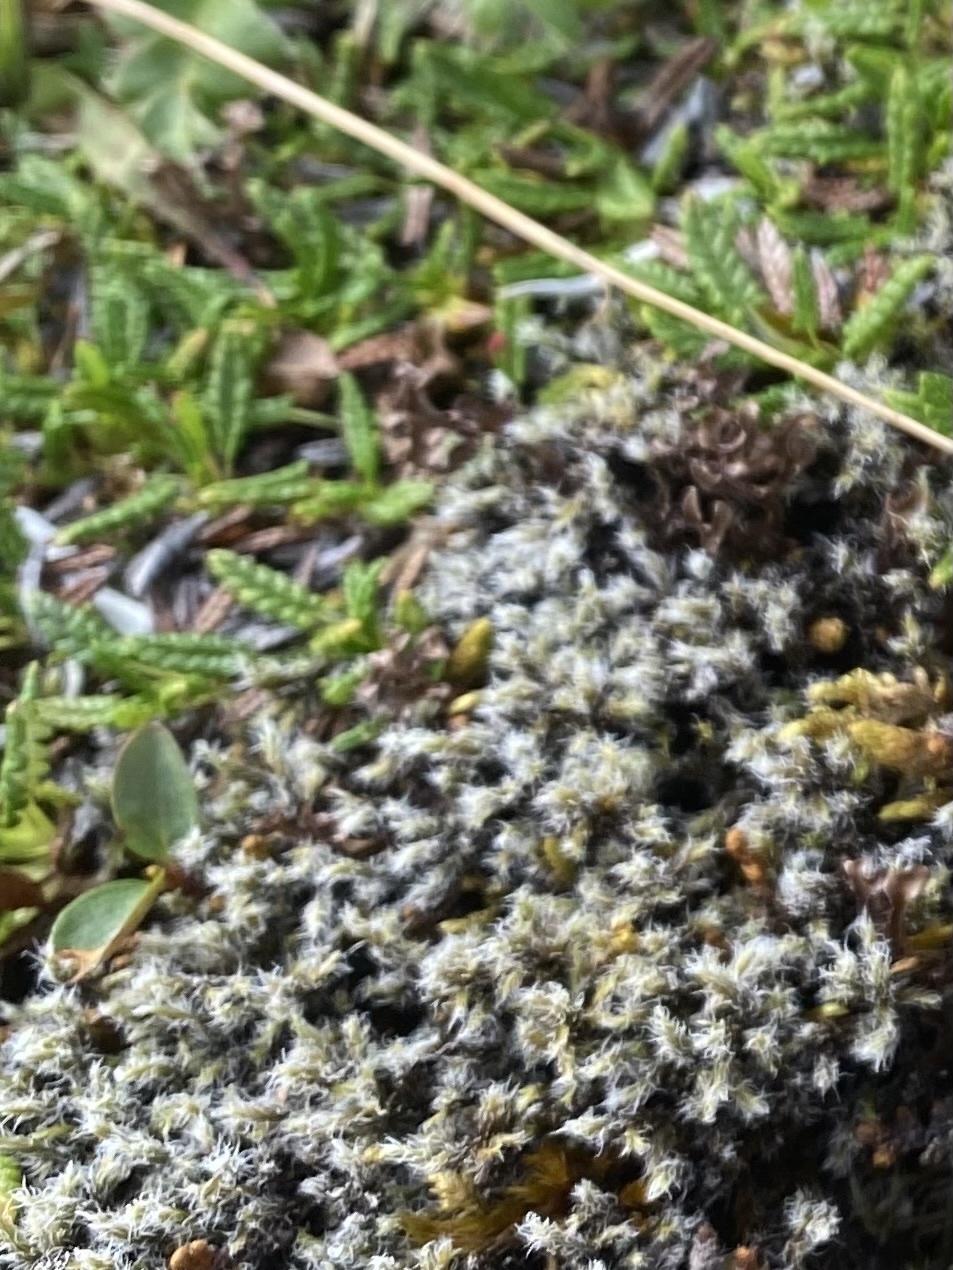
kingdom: Plantae
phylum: Tracheophyta
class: Magnoliopsida
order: Rosales
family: Rosaceae
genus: Dryas
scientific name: Dryas octopetala
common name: Eight-petal mountain-avens
